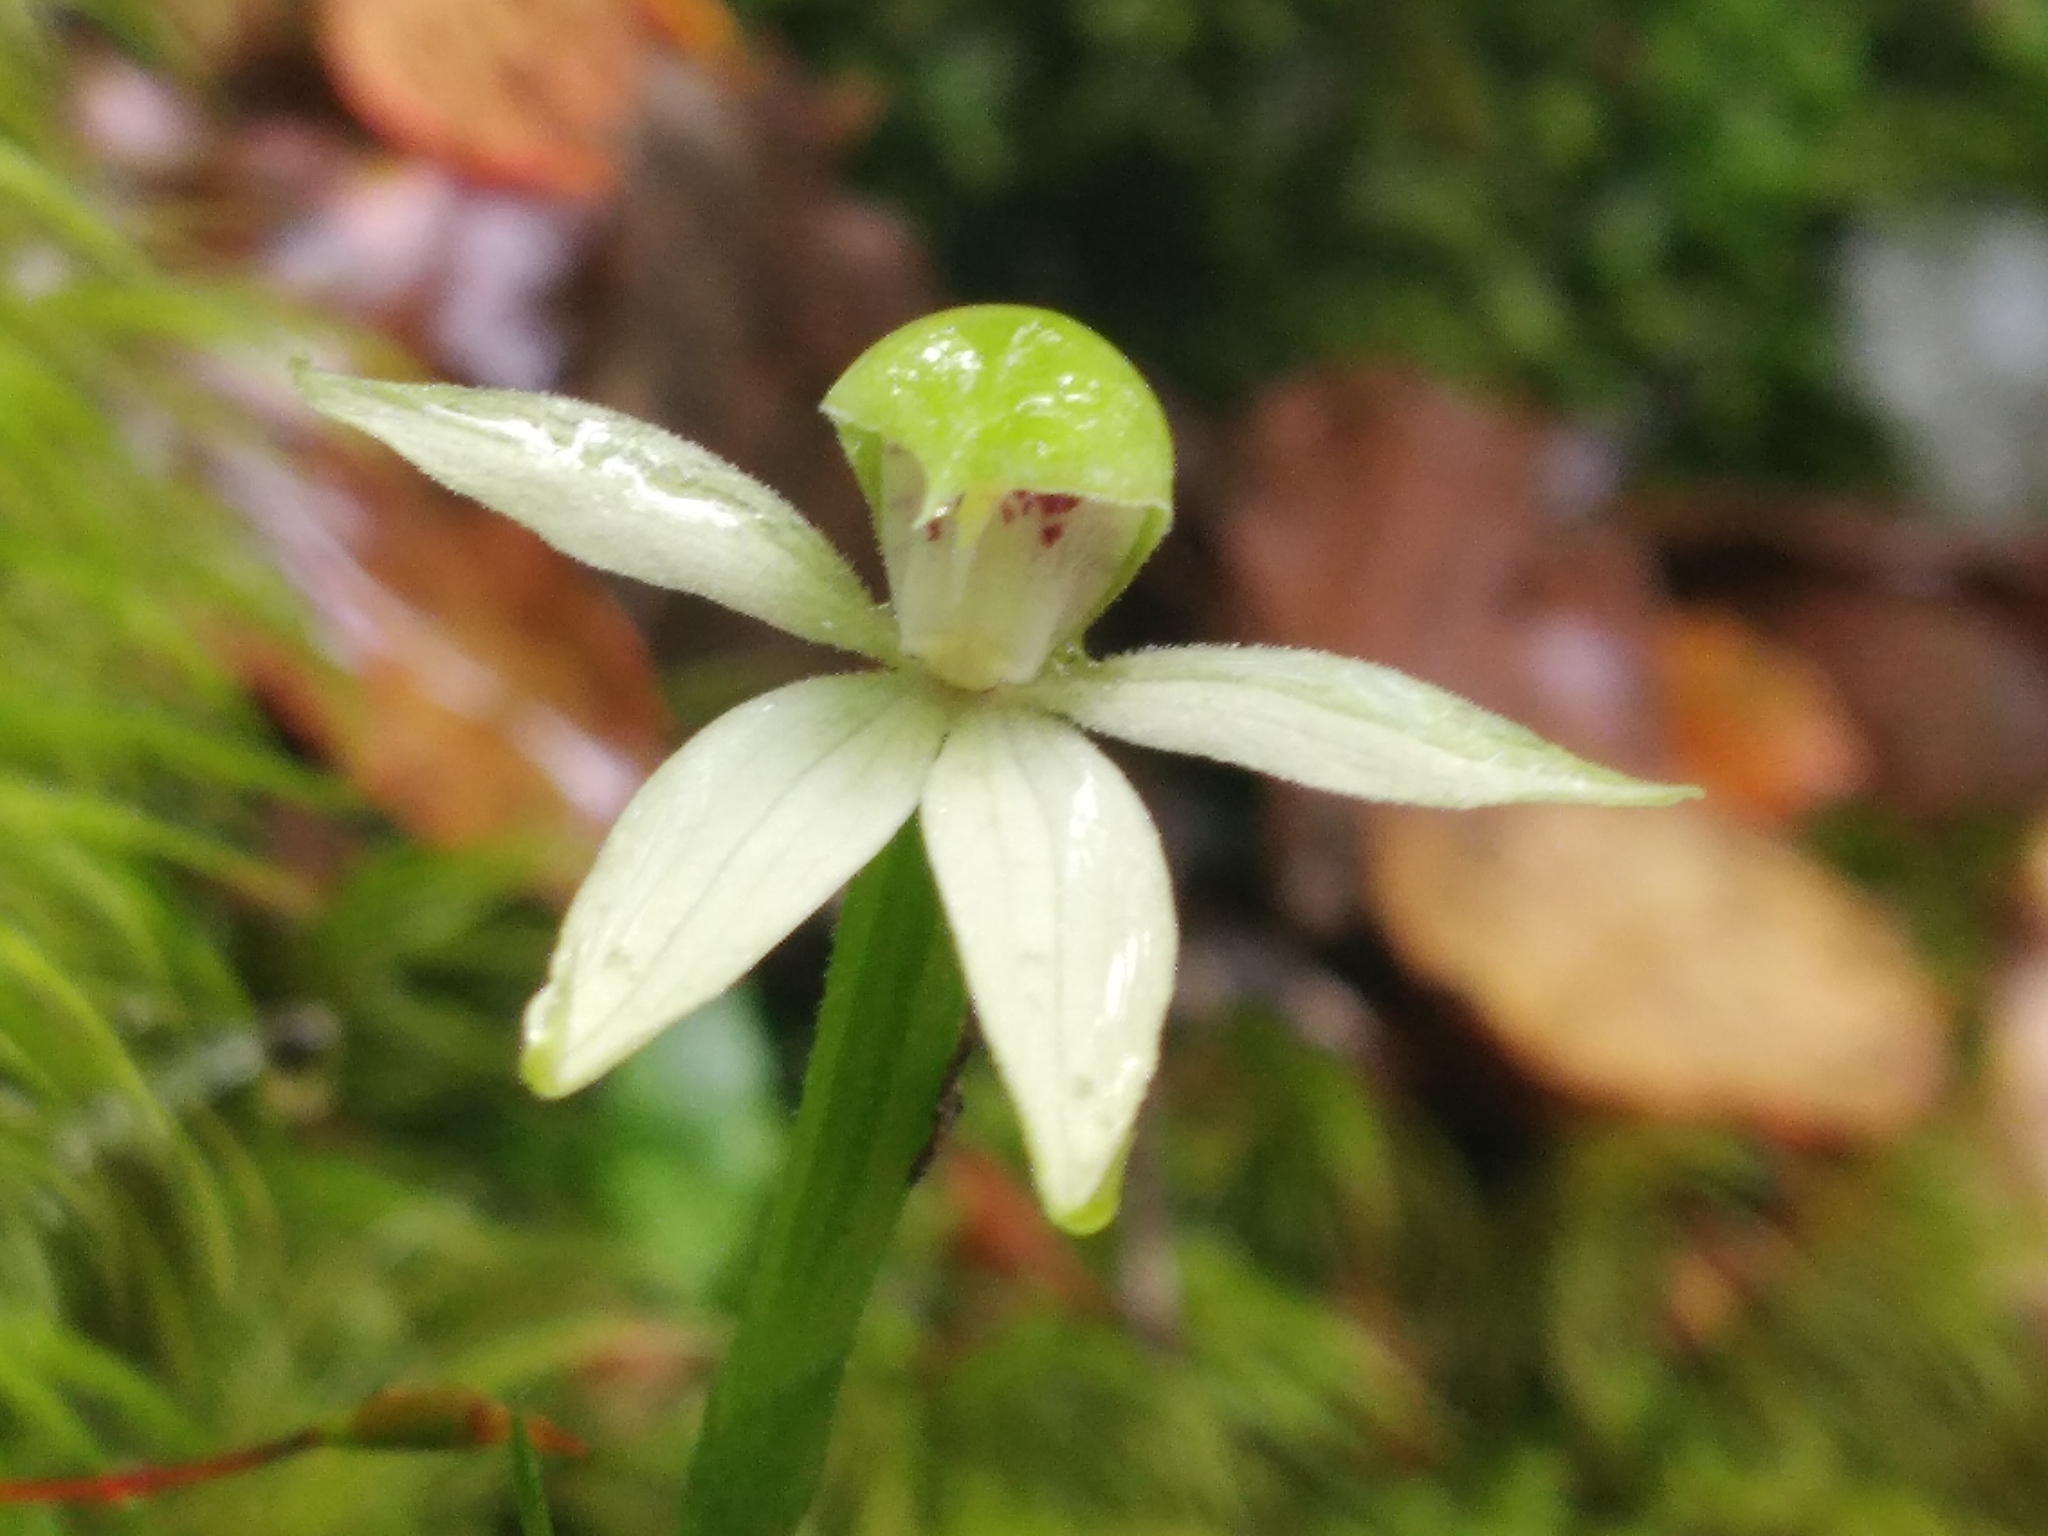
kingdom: Plantae
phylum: Tracheophyta
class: Liliopsida
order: Asparagales
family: Orchidaceae
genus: Adenochilus
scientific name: Adenochilus gracilis
